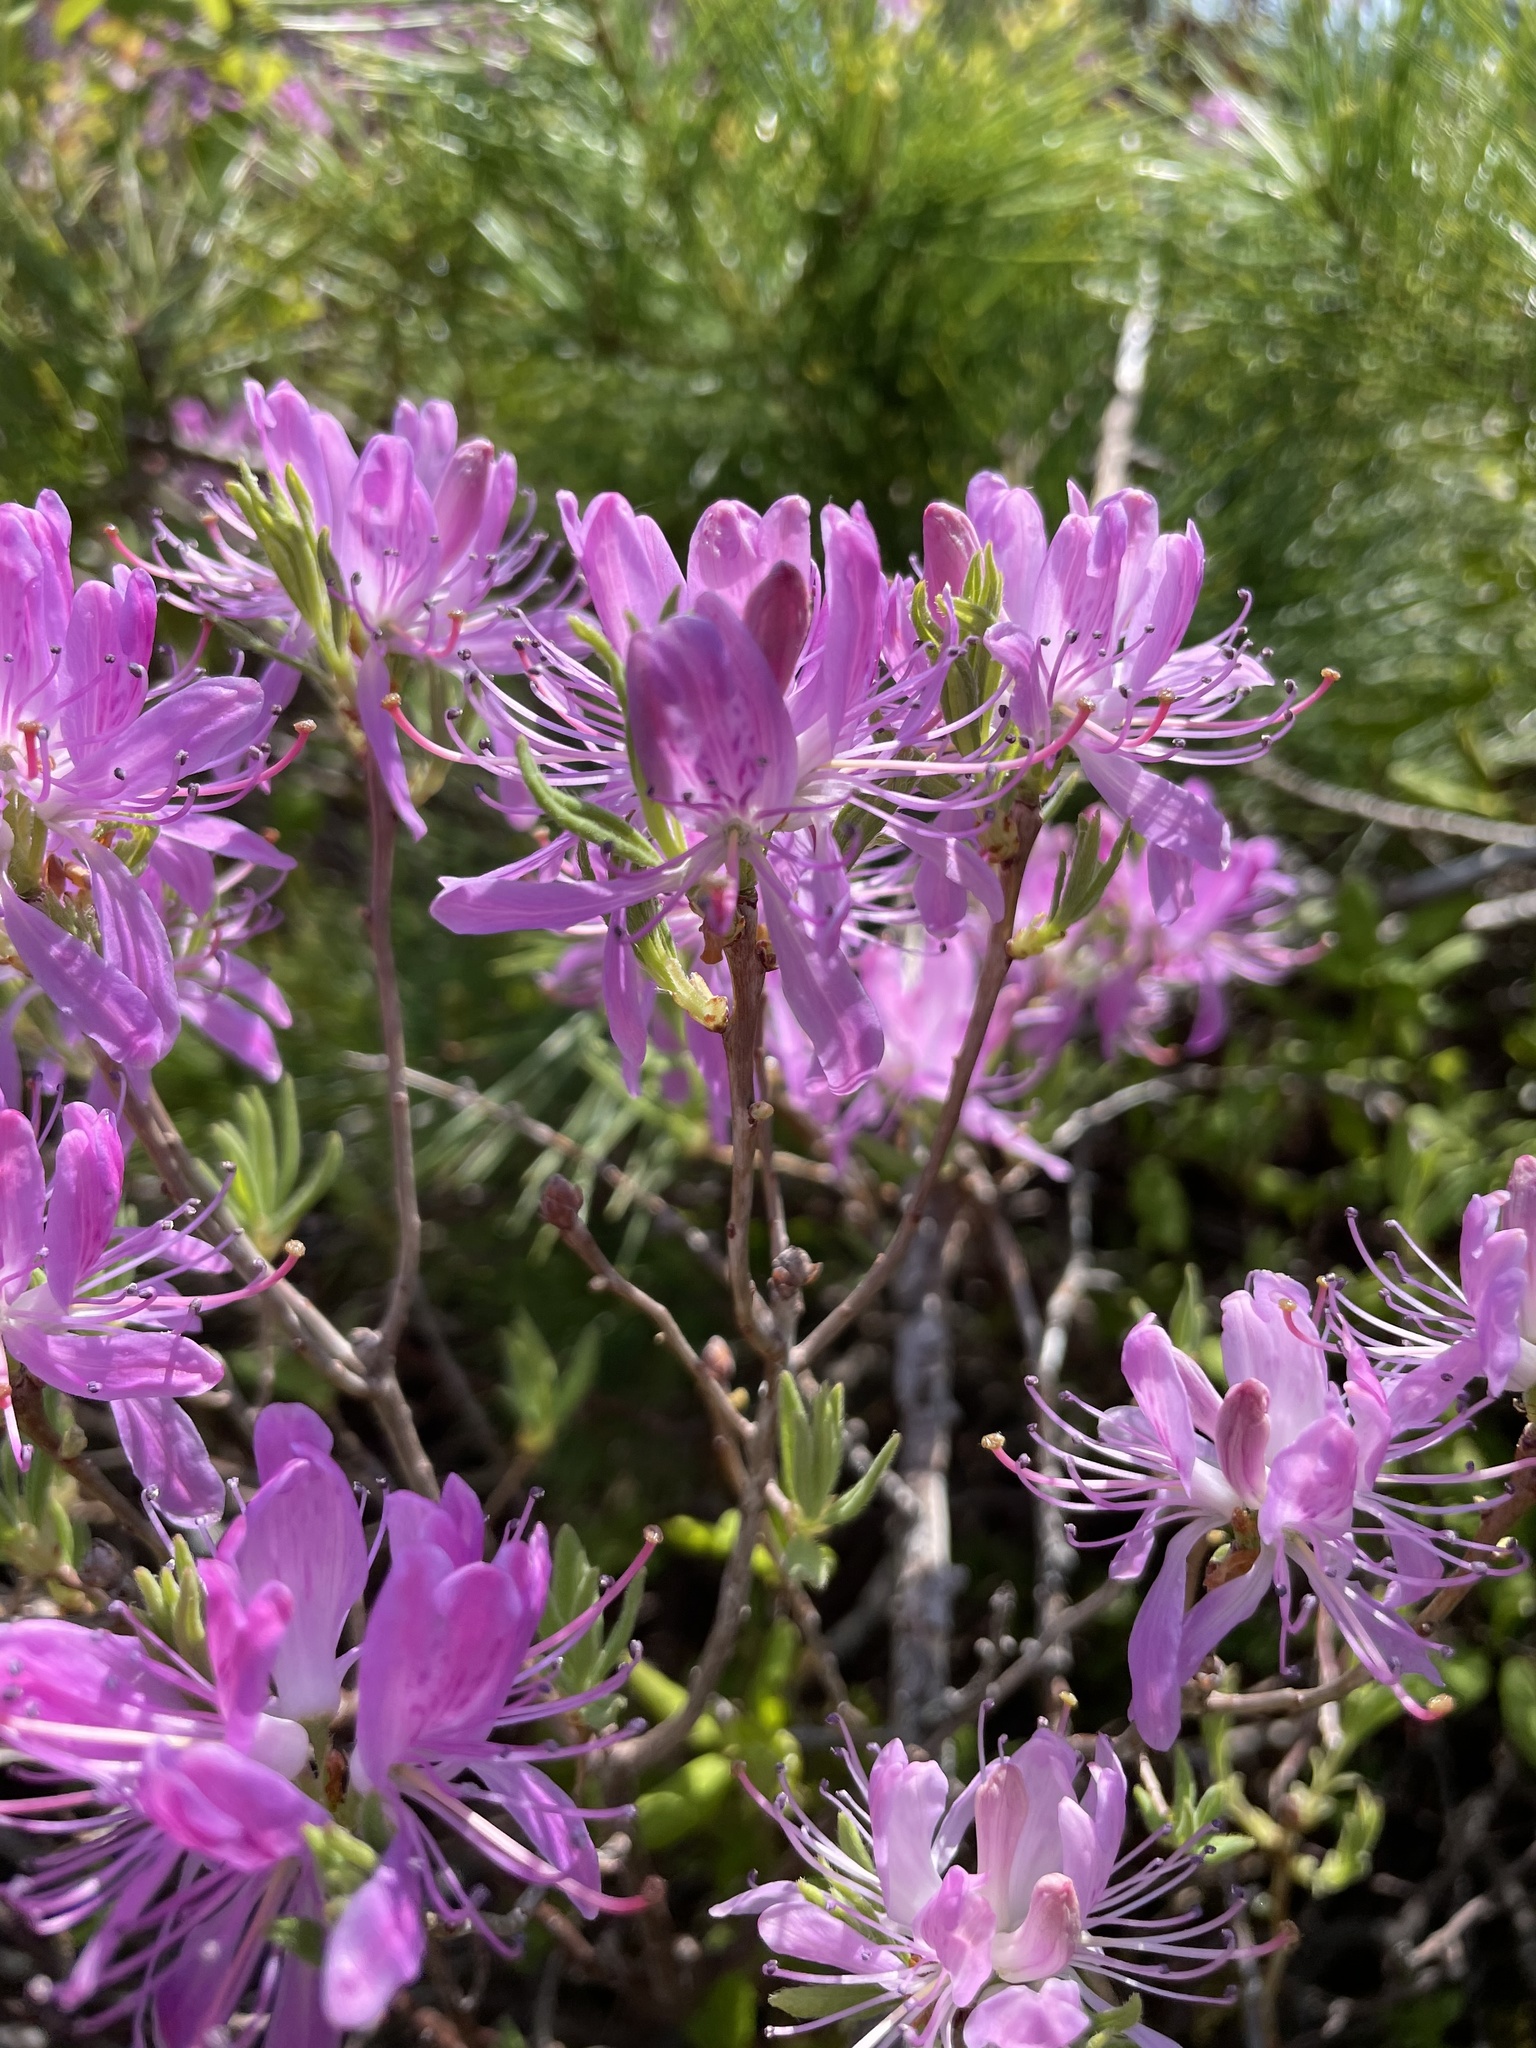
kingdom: Plantae
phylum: Tracheophyta
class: Magnoliopsida
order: Ericales
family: Ericaceae
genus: Rhododendron
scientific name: Rhododendron canadense
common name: Rhodora
